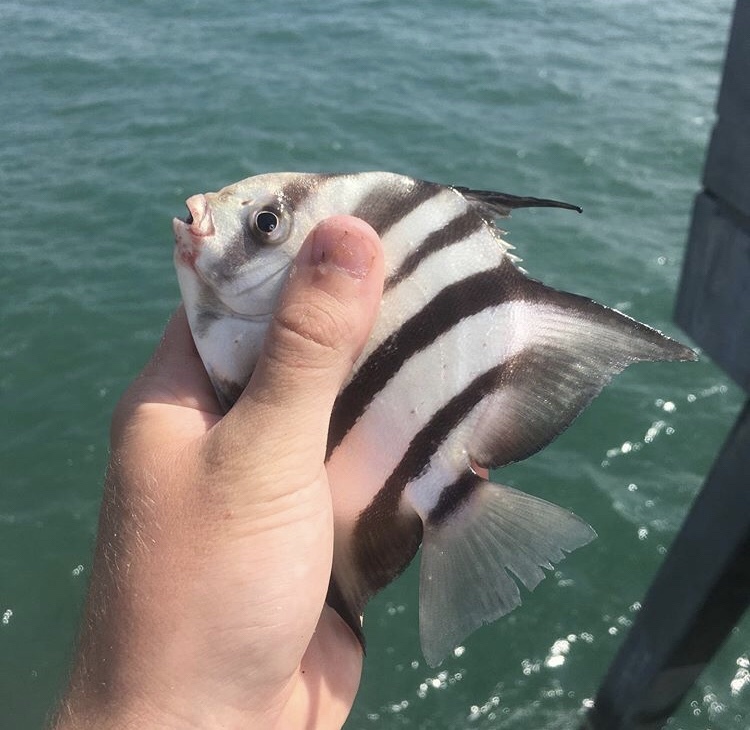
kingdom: Animalia
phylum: Chordata
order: Perciformes
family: Ephippidae
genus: Chaetodipterus
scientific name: Chaetodipterus faber
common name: Ocean cobbler
